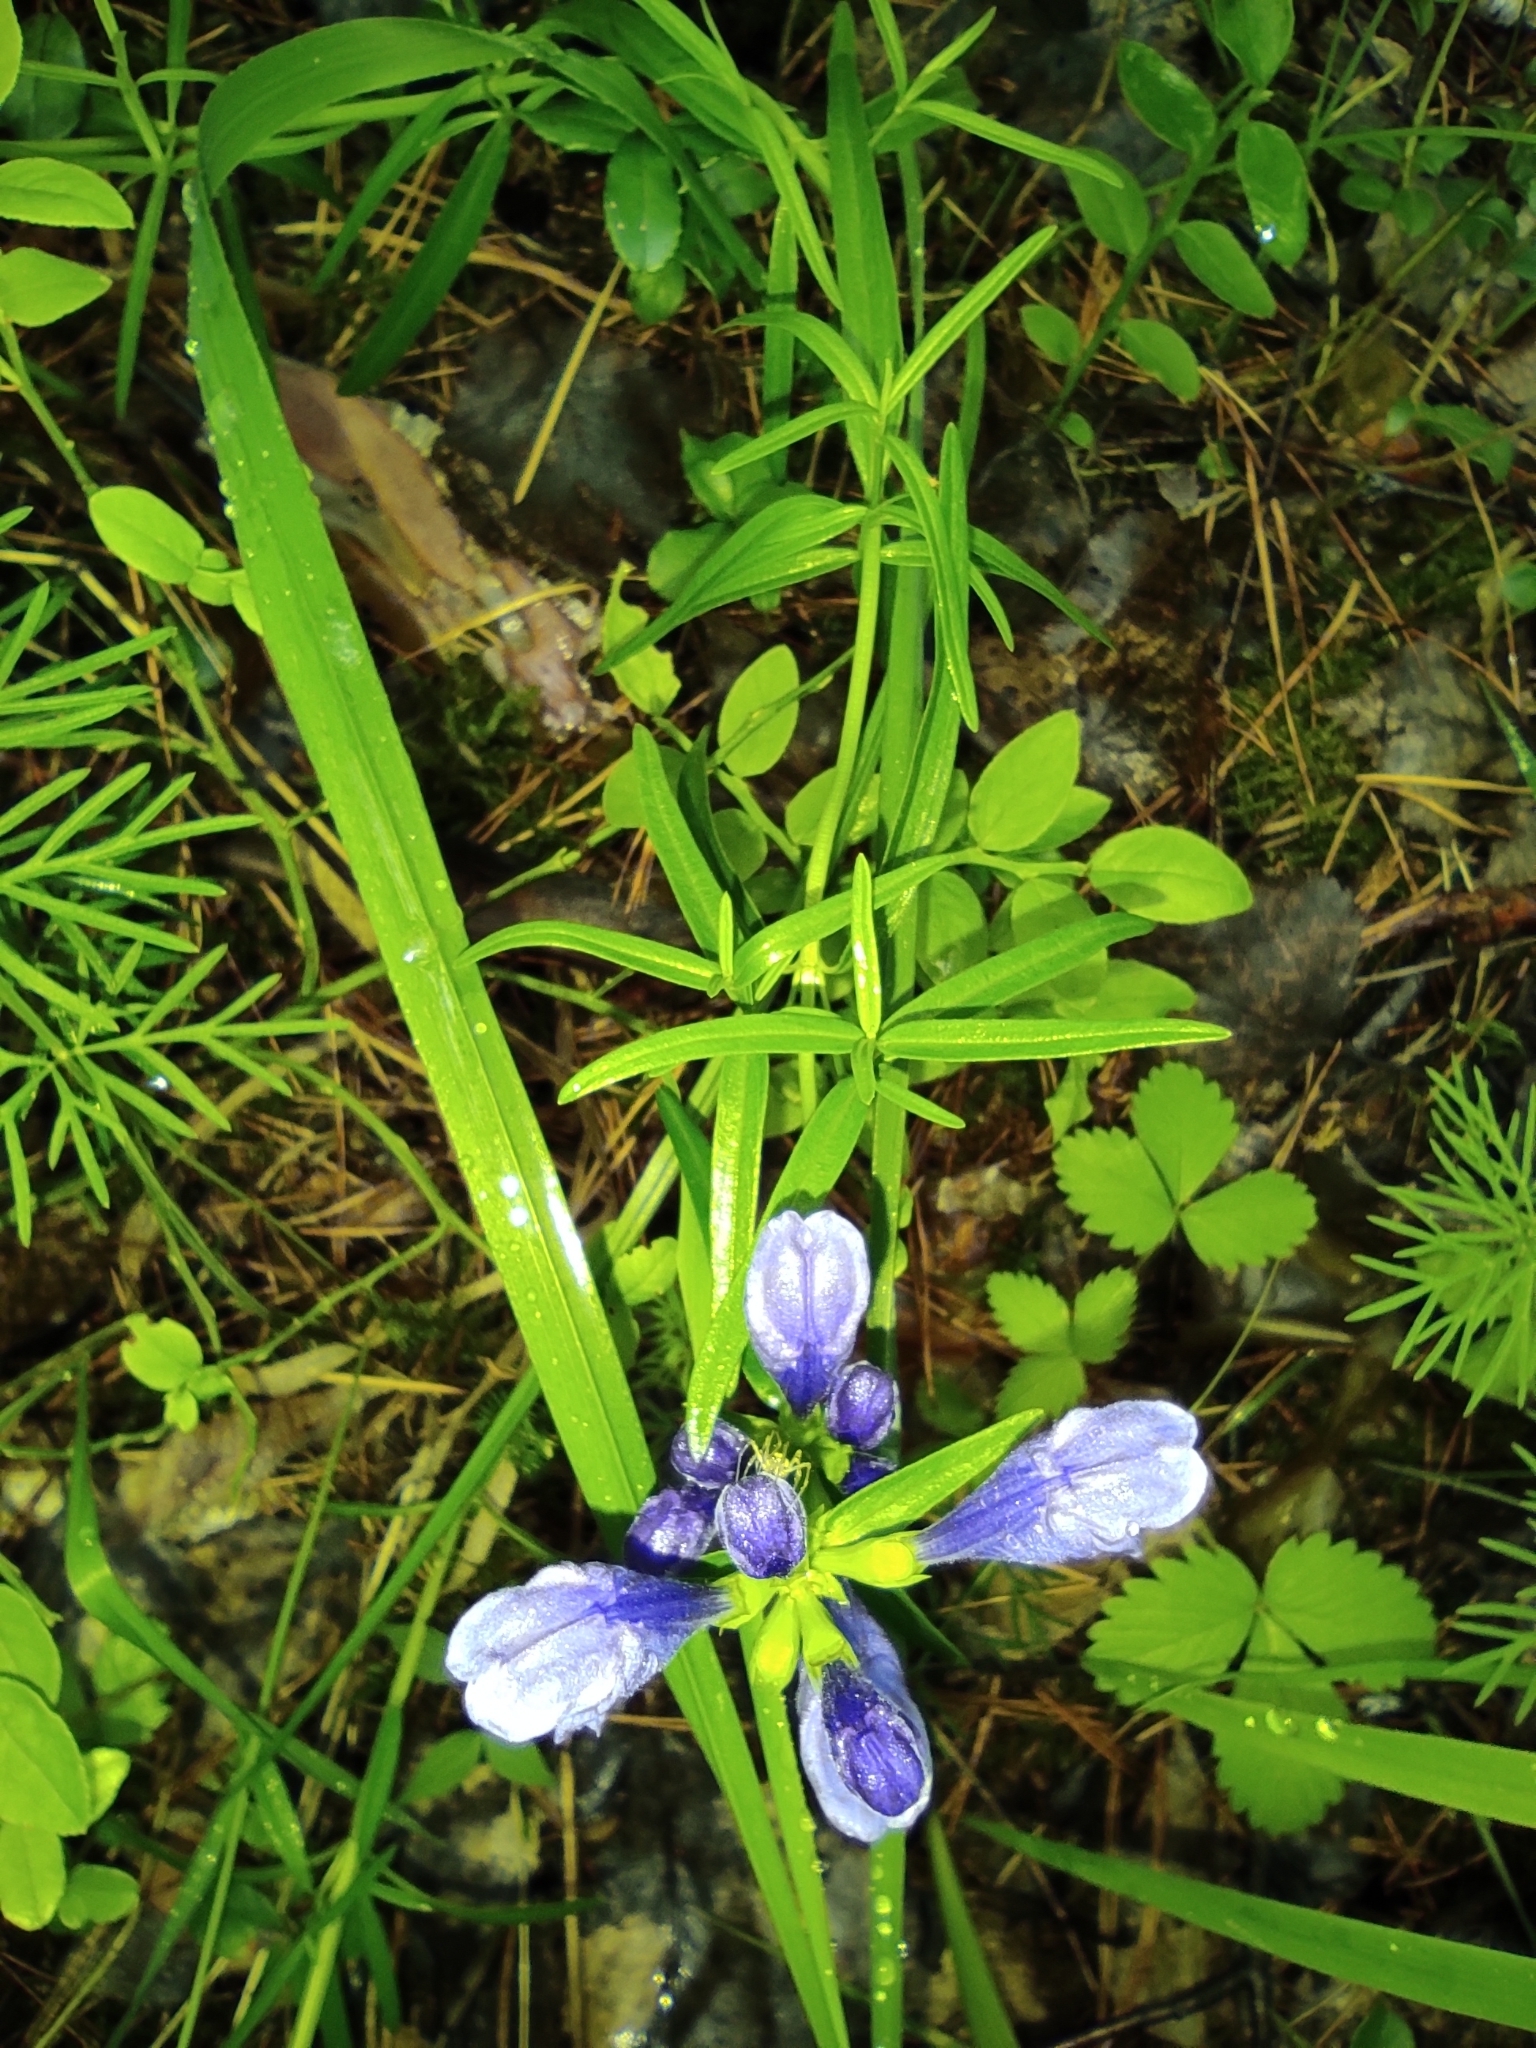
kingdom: Plantae
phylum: Tracheophyta
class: Magnoliopsida
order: Lamiales
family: Lamiaceae
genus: Dracocephalum
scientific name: Dracocephalum ruyschiana
